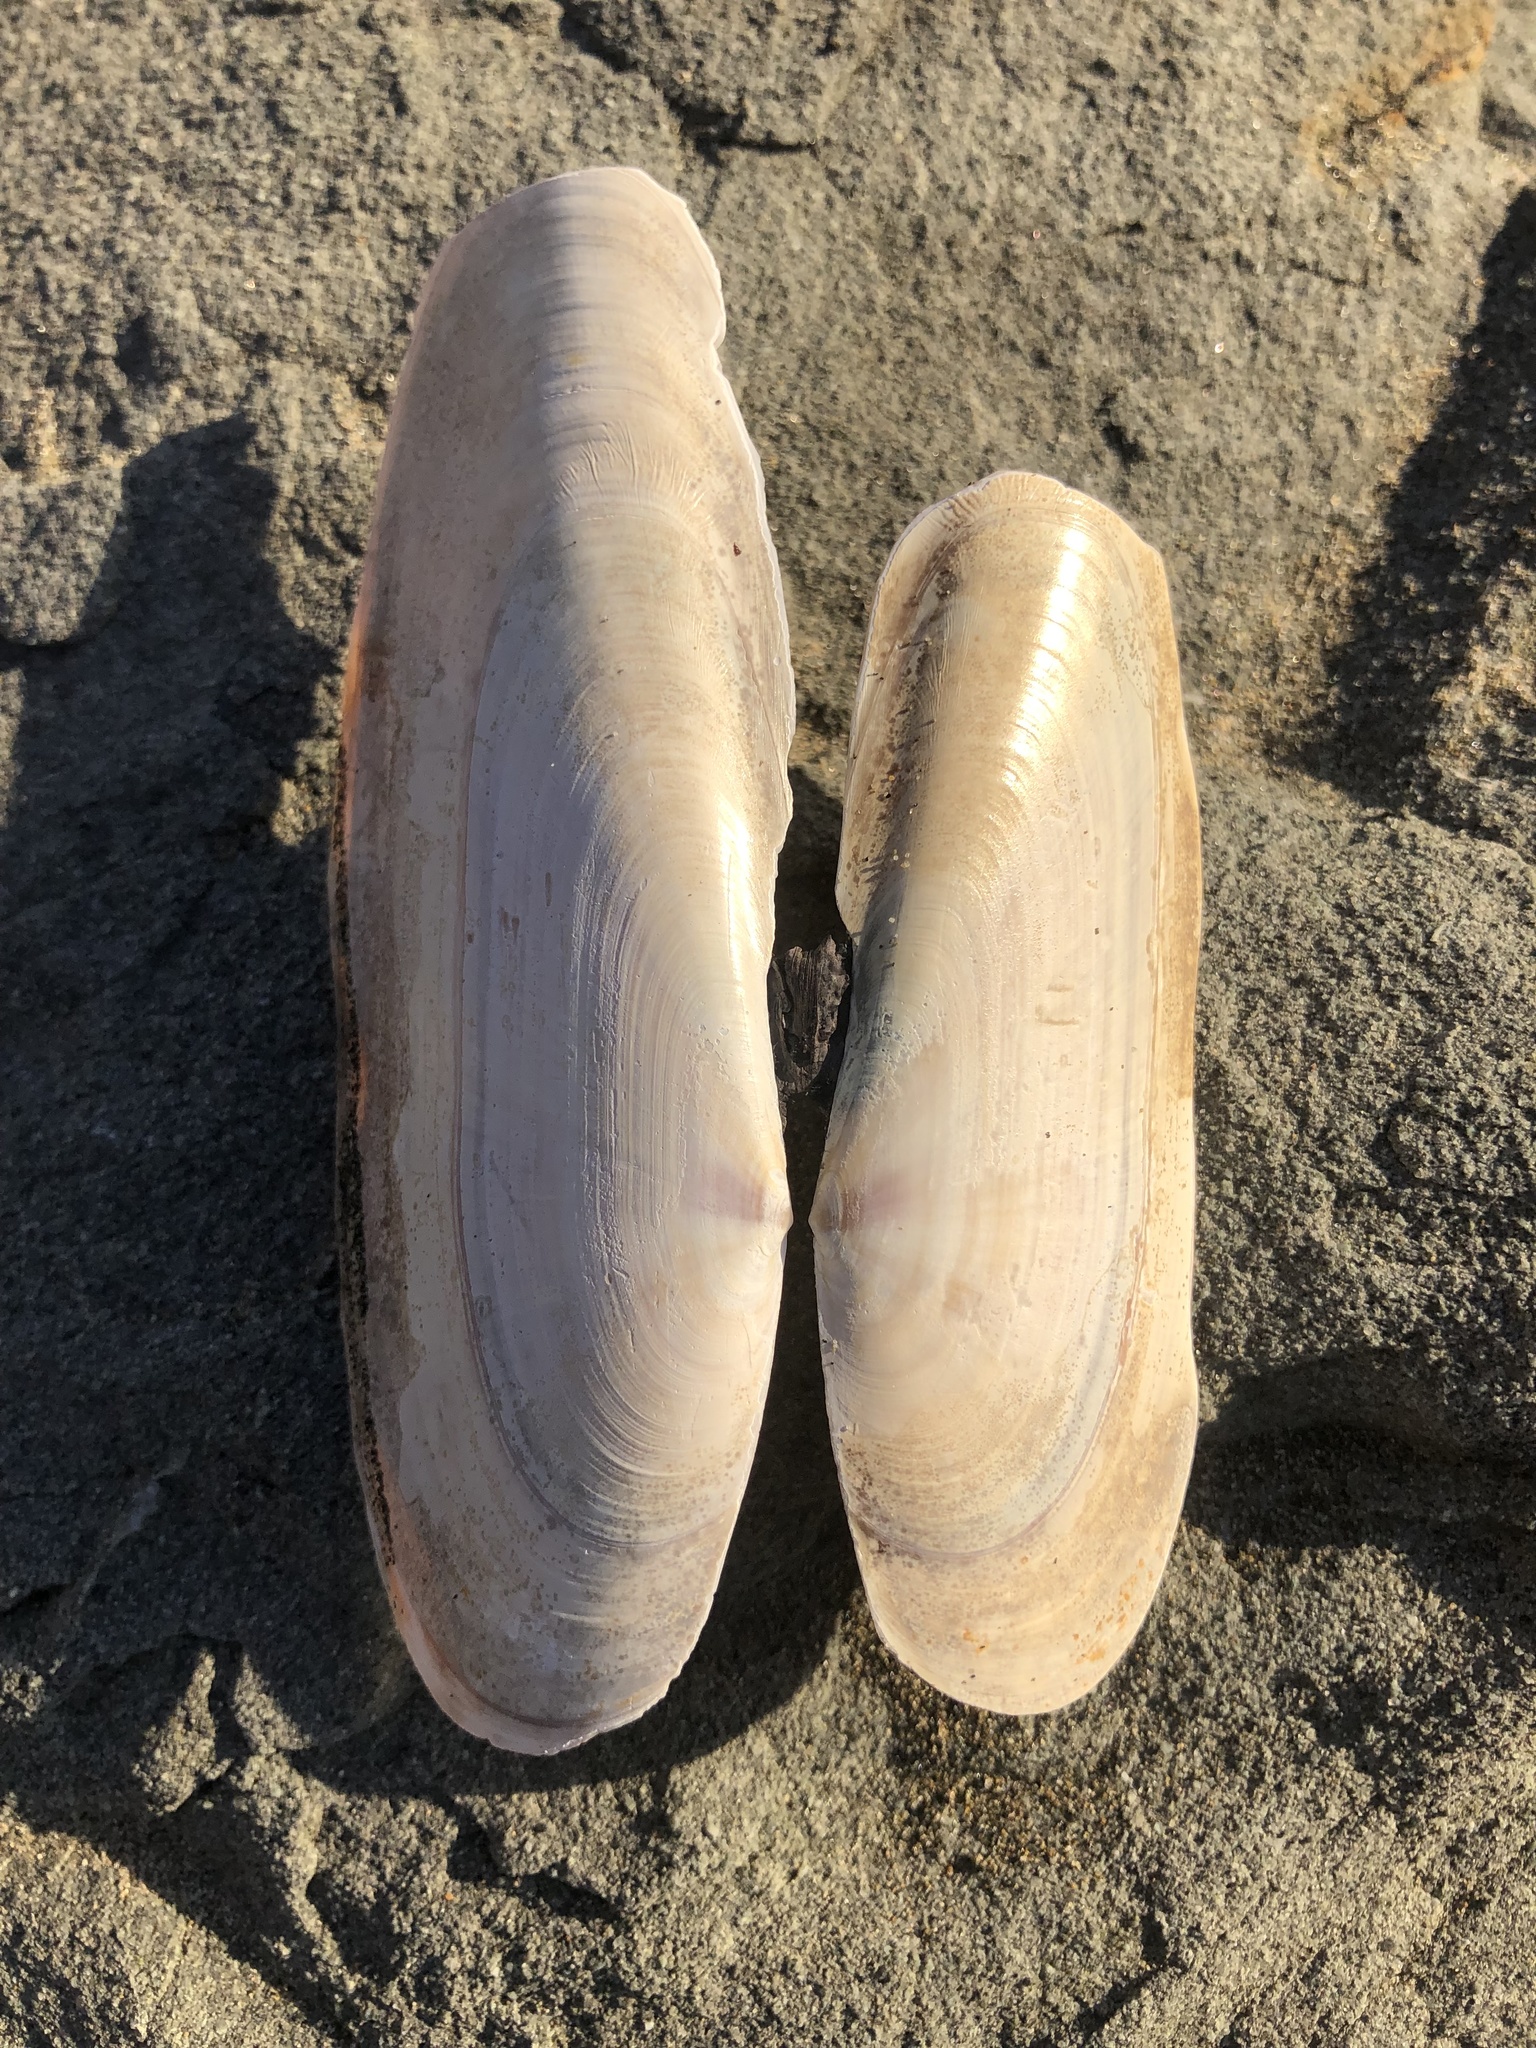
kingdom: Animalia
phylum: Mollusca
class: Bivalvia
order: Adapedonta
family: Pharidae
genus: Siliqua
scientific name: Siliqua patula
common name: Pacific razor clam
